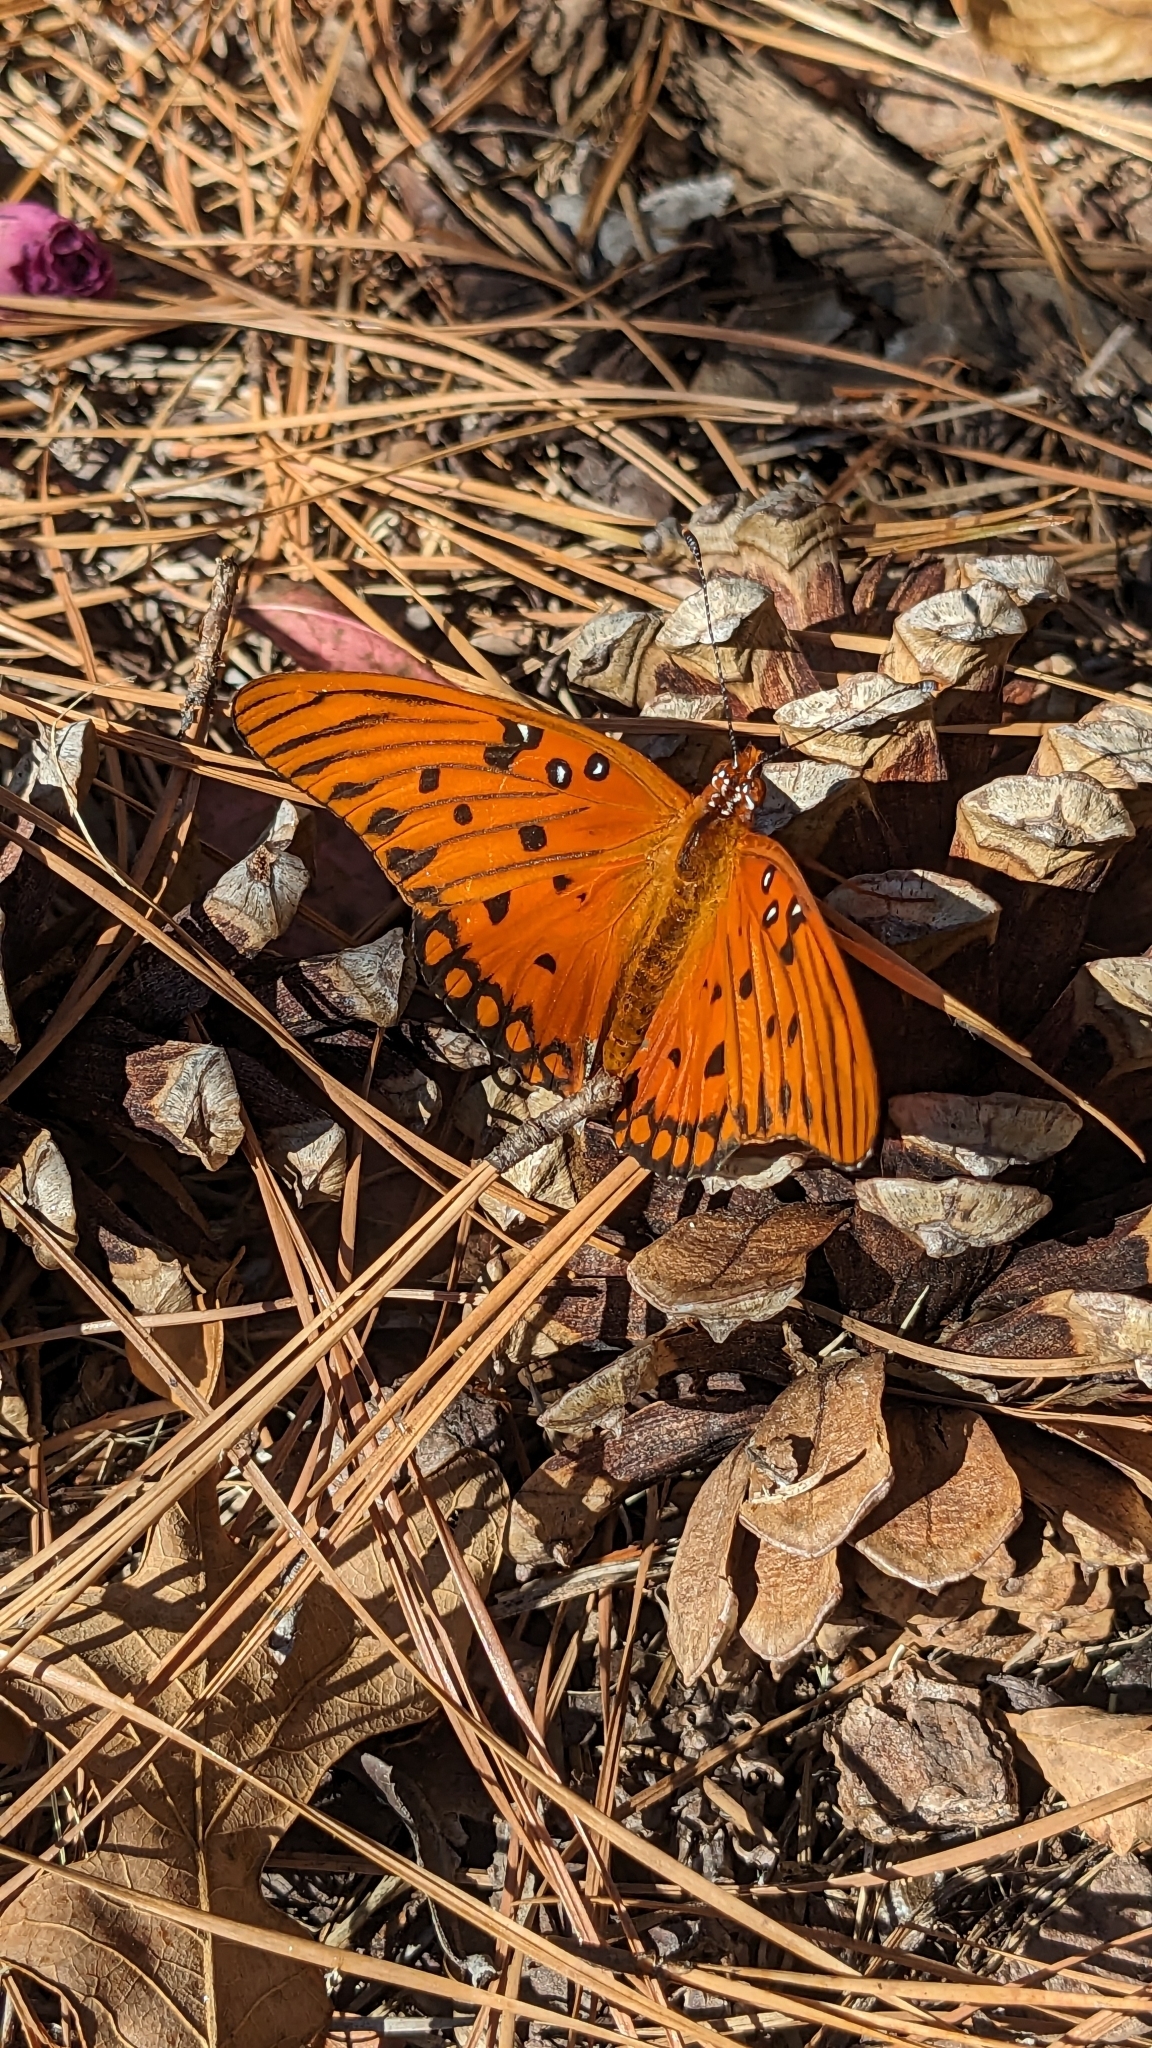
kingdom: Animalia
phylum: Arthropoda
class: Insecta
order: Lepidoptera
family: Nymphalidae
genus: Dione
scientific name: Dione vanillae
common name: Gulf fritillary
